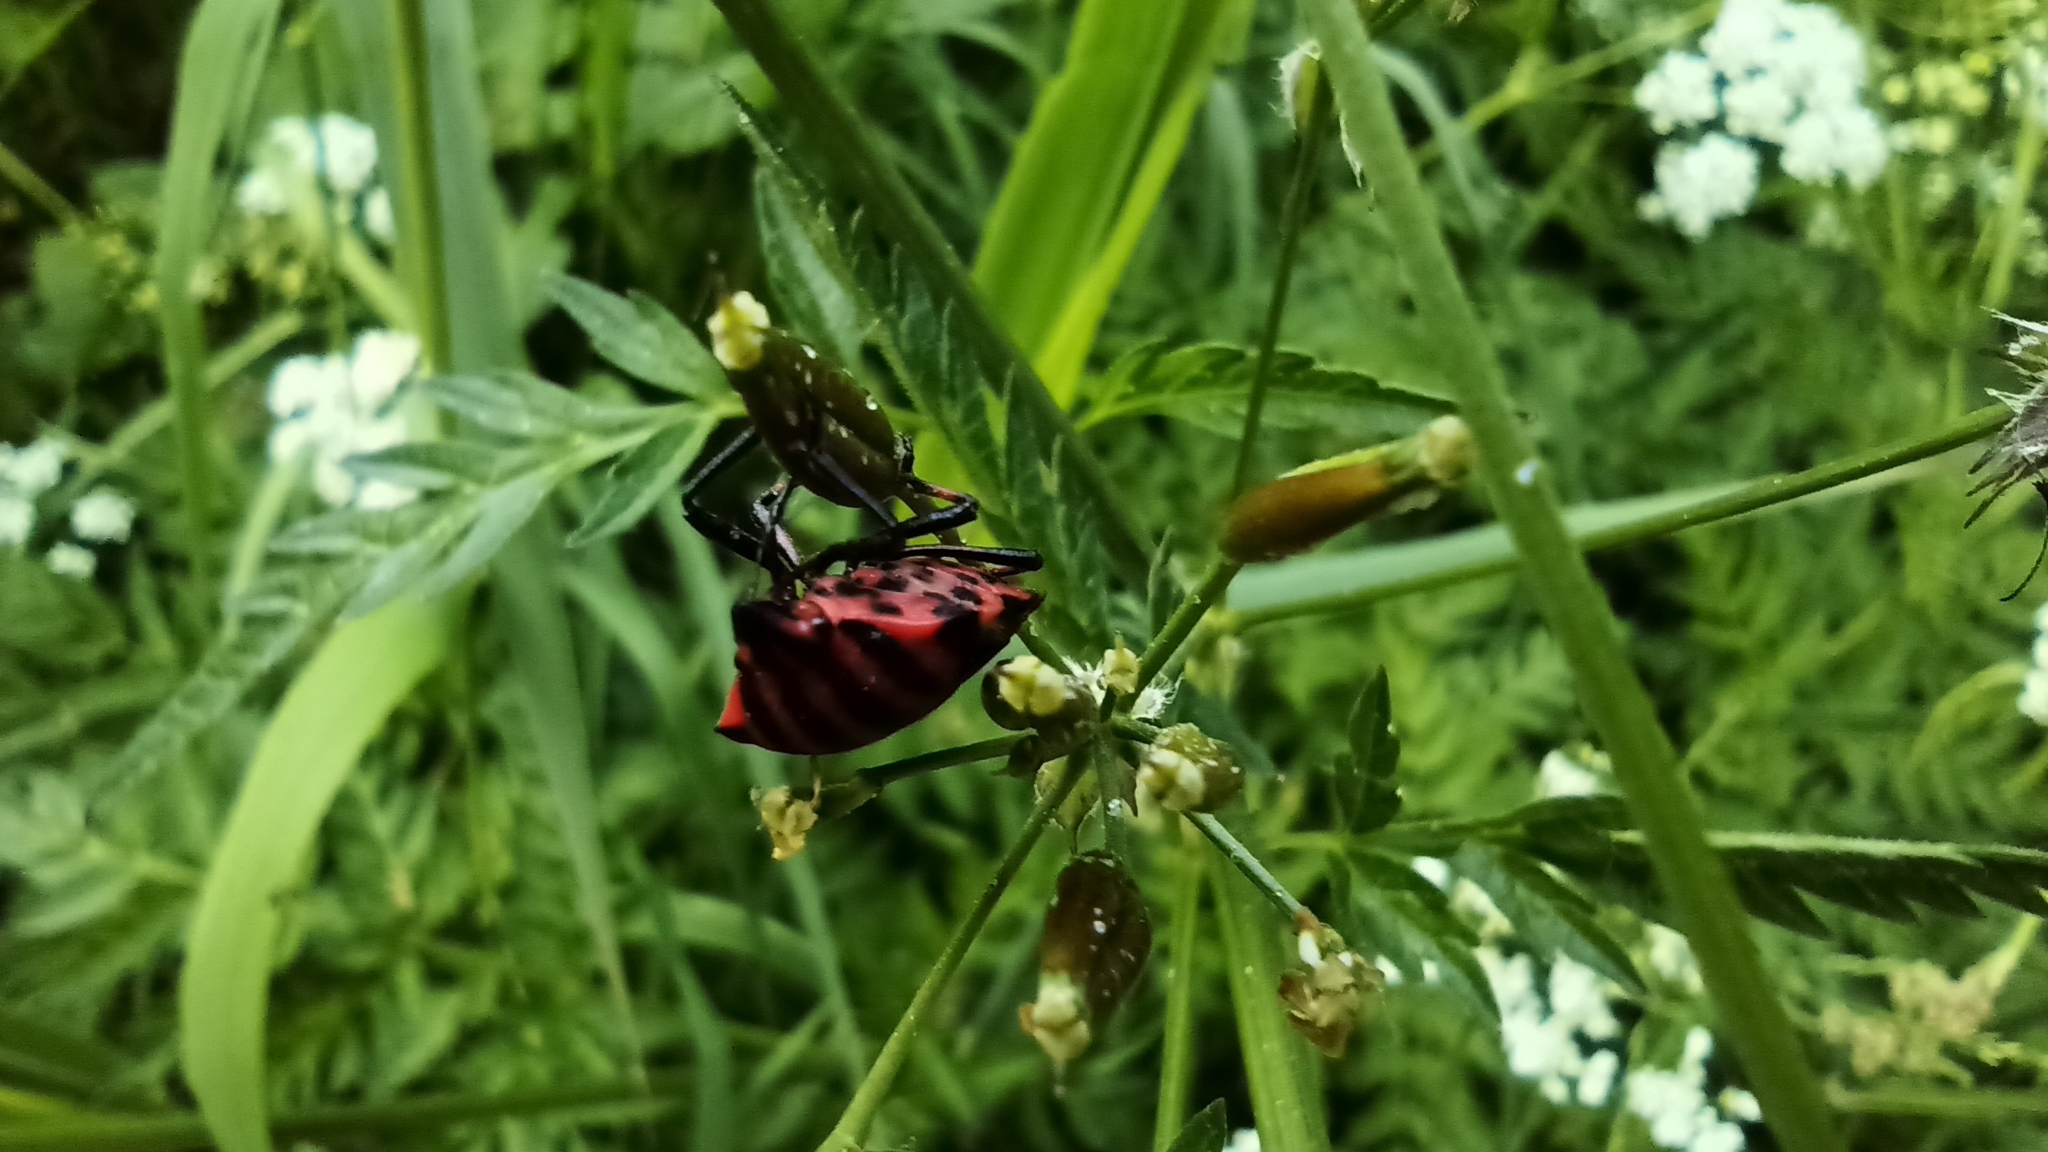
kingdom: Animalia
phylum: Arthropoda
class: Insecta
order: Hemiptera
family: Pentatomidae
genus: Graphosoma
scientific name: Graphosoma italicum
